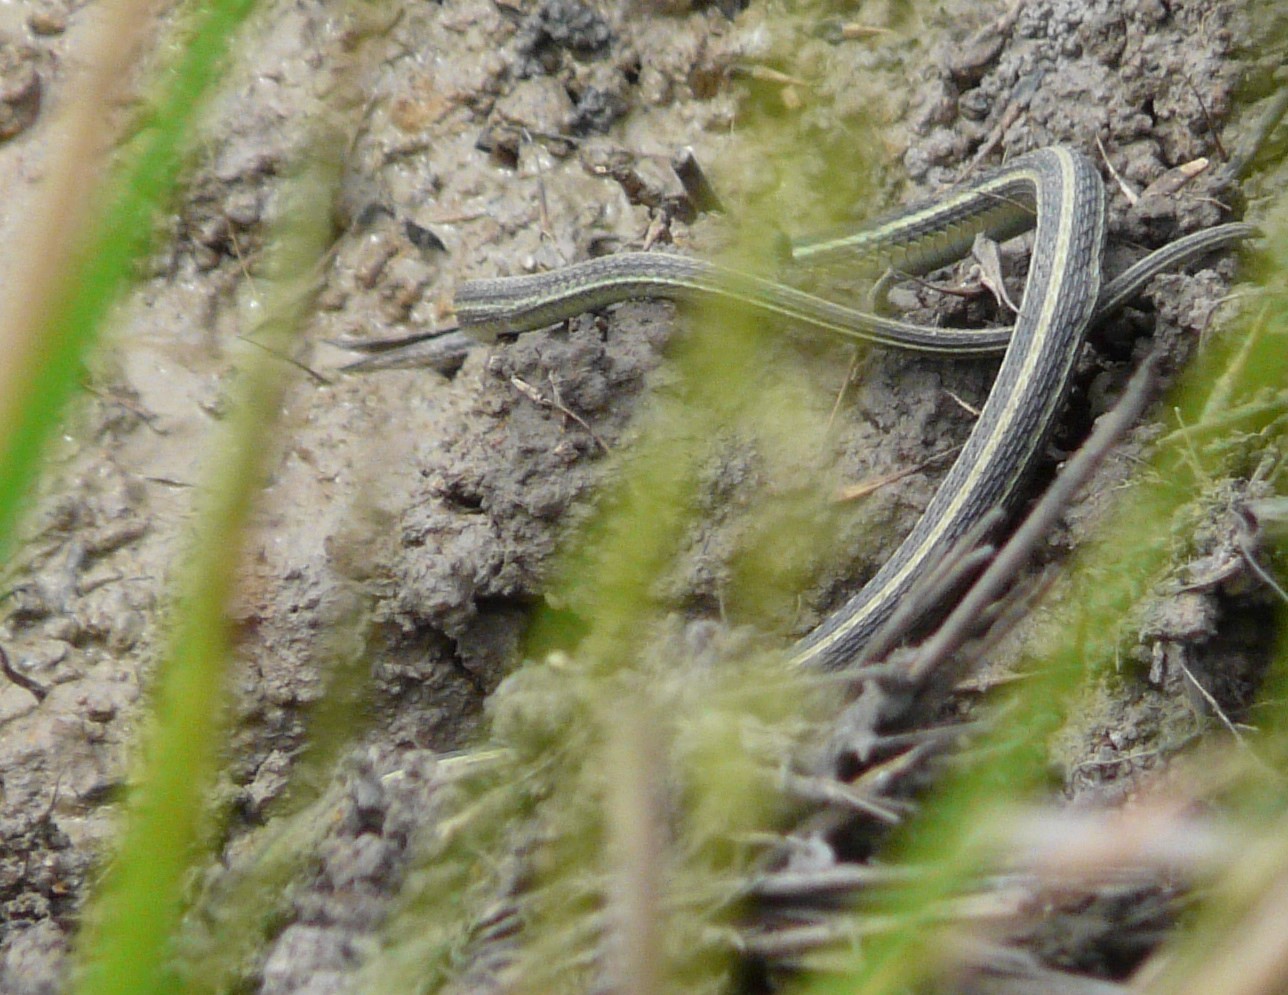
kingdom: Animalia
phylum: Chordata
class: Squamata
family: Colubridae
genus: Thamnophis
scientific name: Thamnophis proximus
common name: Western ribbon snake
